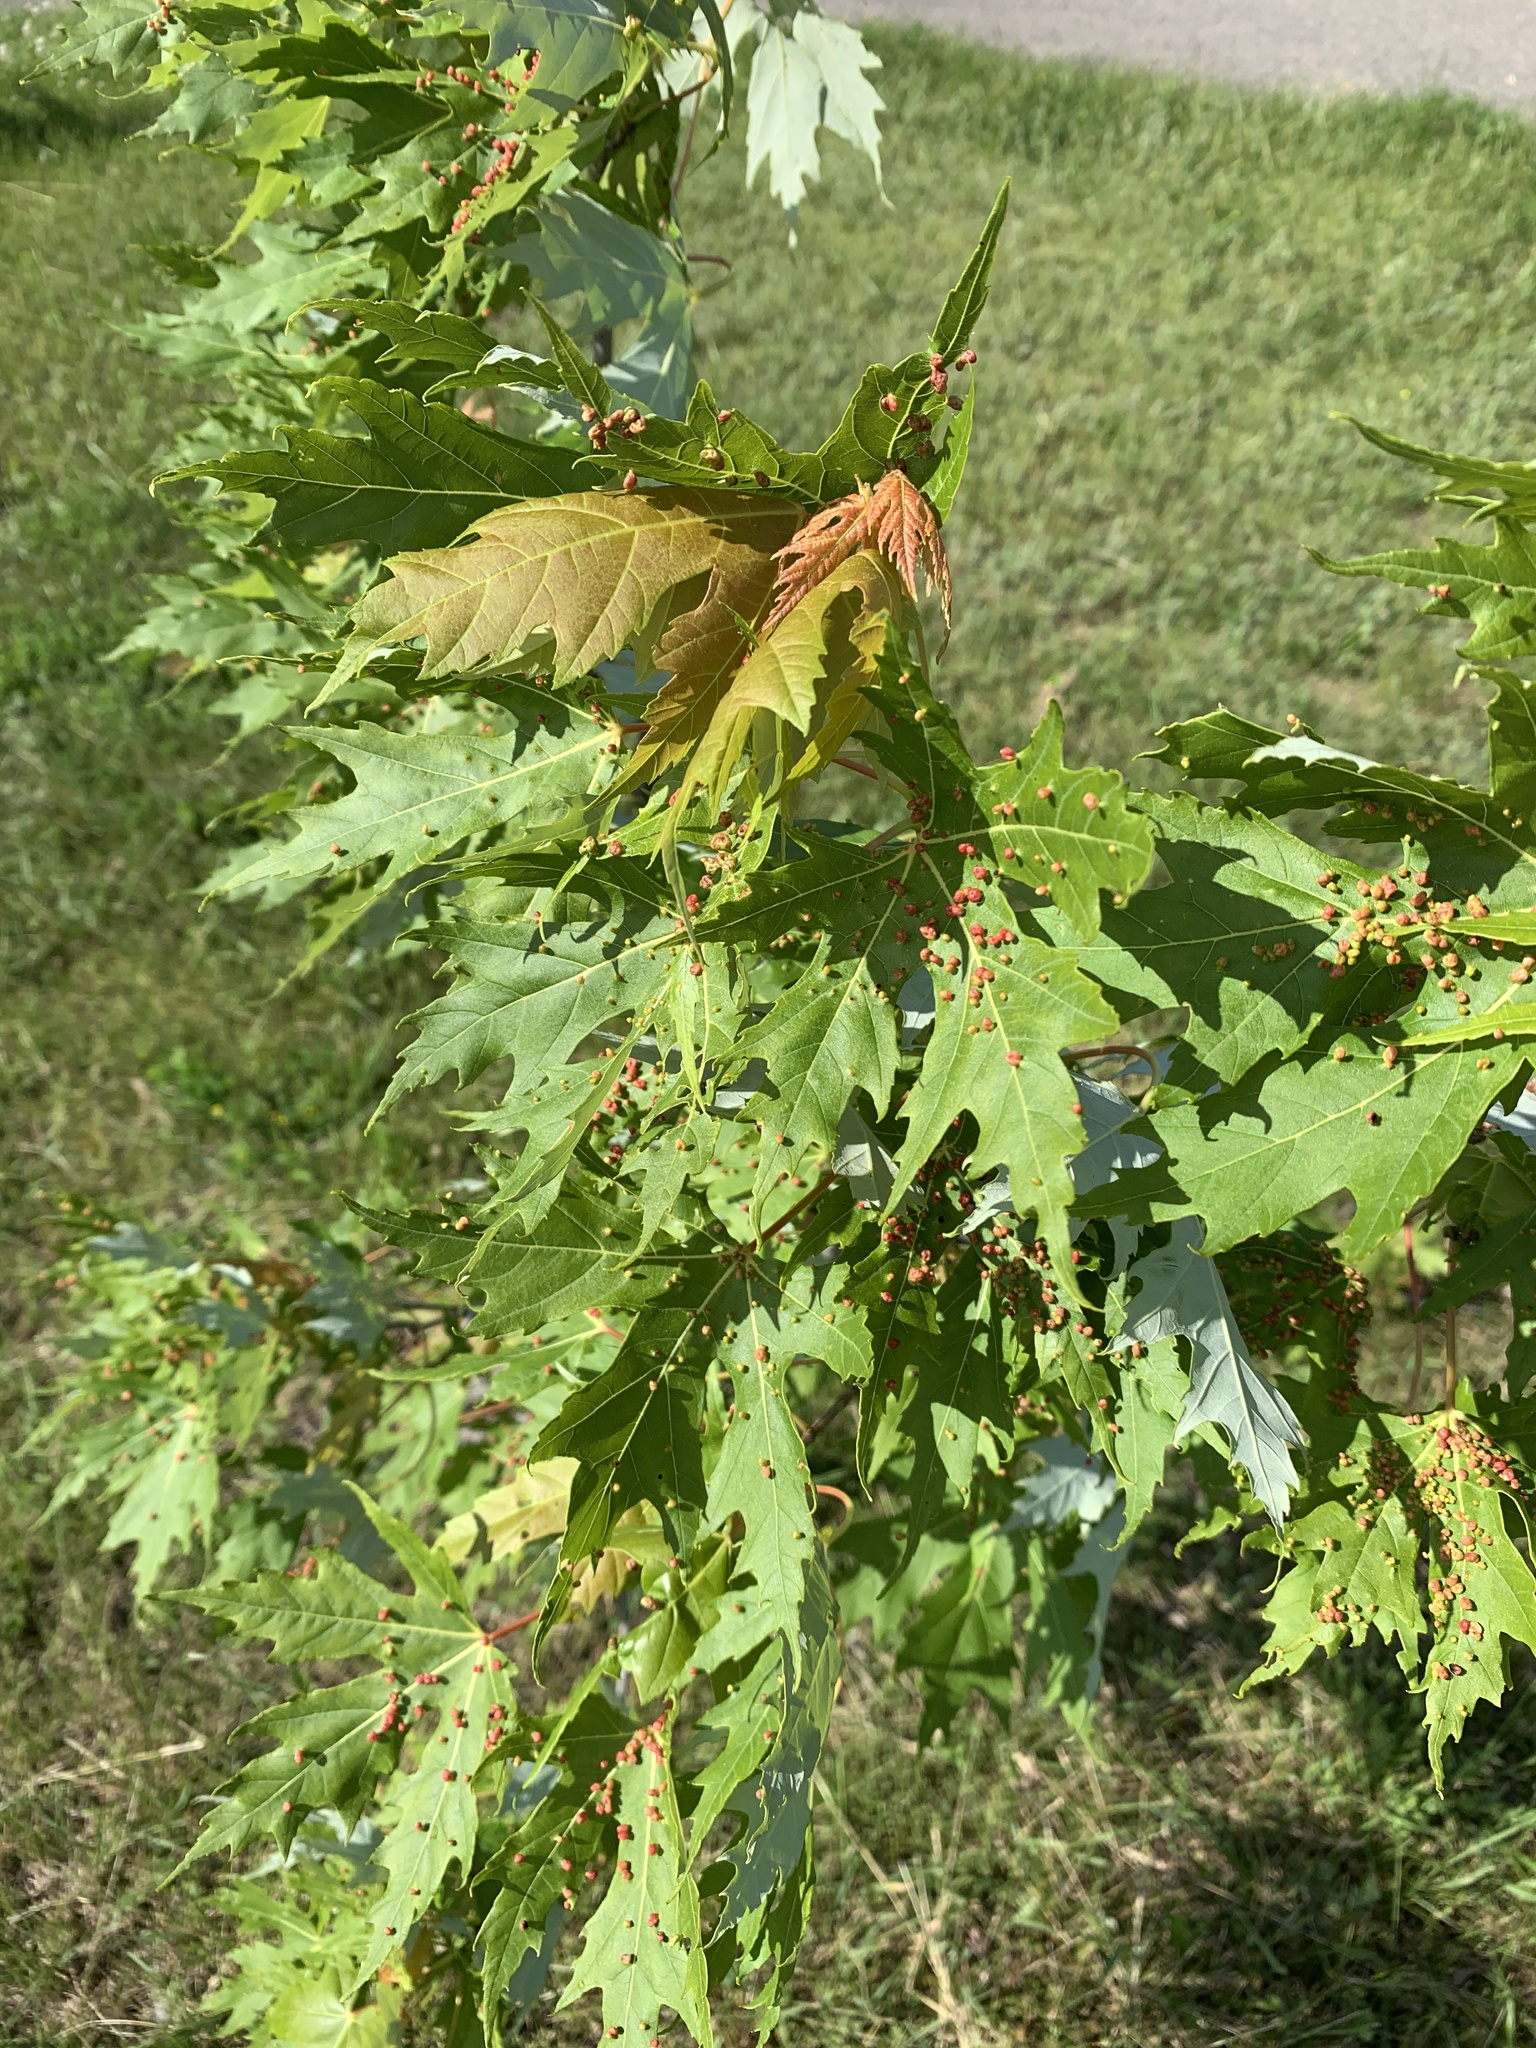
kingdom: Animalia
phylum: Arthropoda
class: Arachnida
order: Trombidiformes
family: Eriophyidae
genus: Vasates
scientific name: Vasates quadripedes
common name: Maple bladder gall mite
